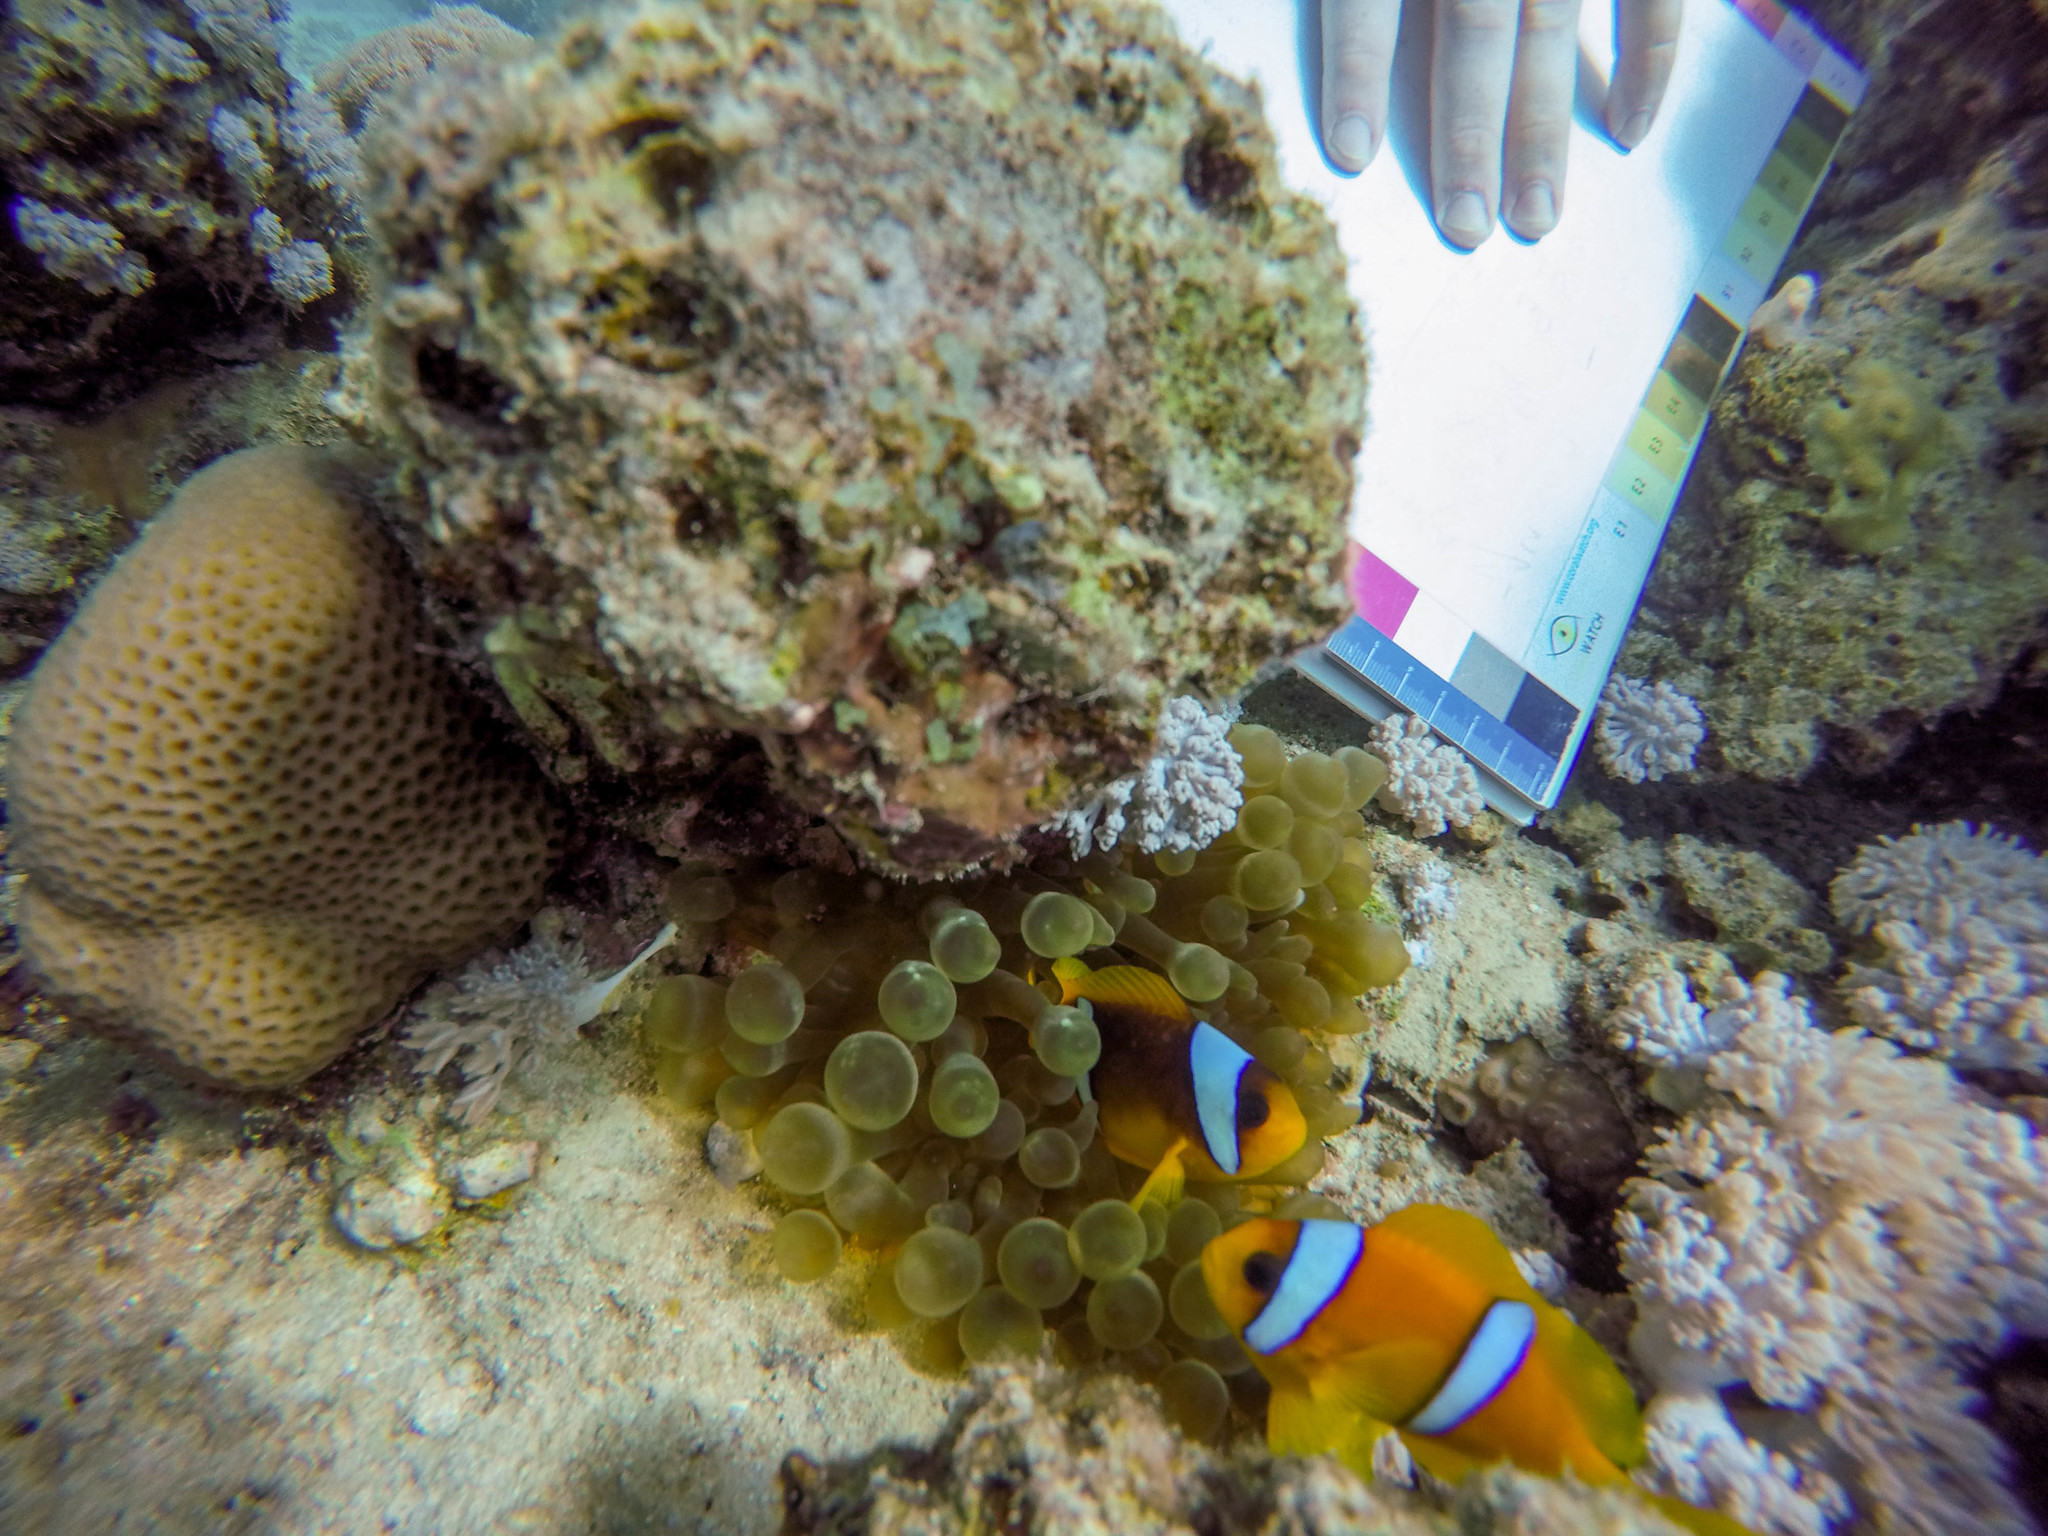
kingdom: Animalia
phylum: Cnidaria
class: Anthozoa
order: Actiniaria
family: Actiniidae
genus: Entacmaea
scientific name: Entacmaea quadricolor
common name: Bulb tentacle sea anemone
